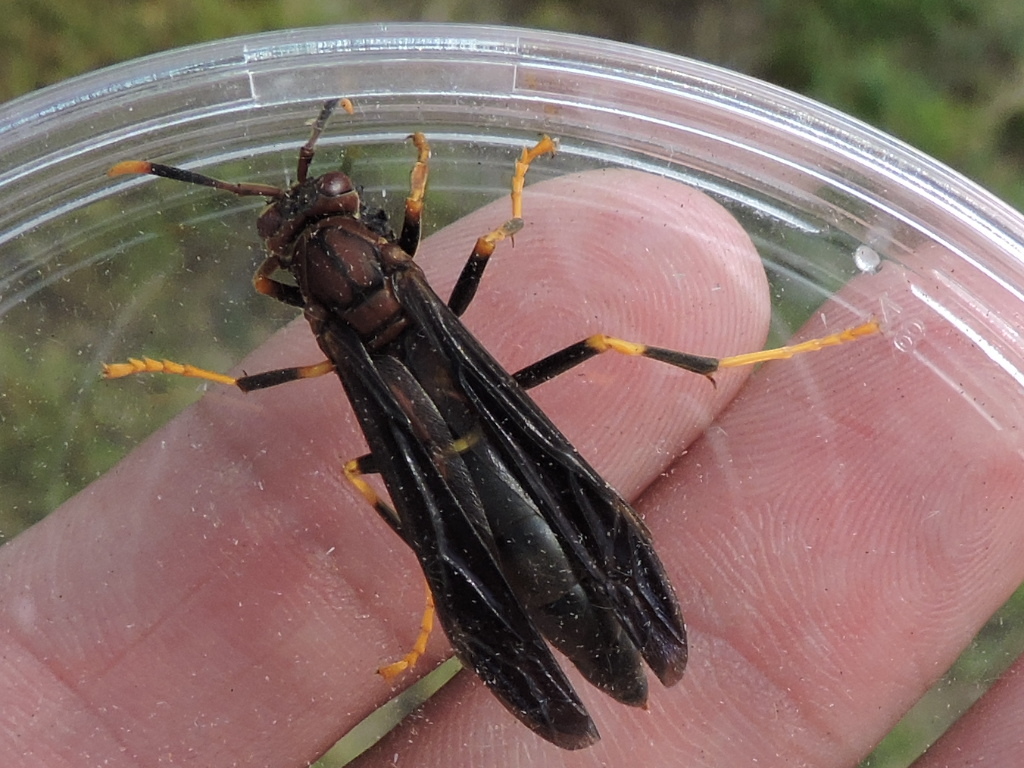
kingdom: Animalia
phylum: Arthropoda
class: Insecta
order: Hymenoptera
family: Eumenidae
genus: Polistes
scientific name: Polistes annularis
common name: Ringed paper wasp
